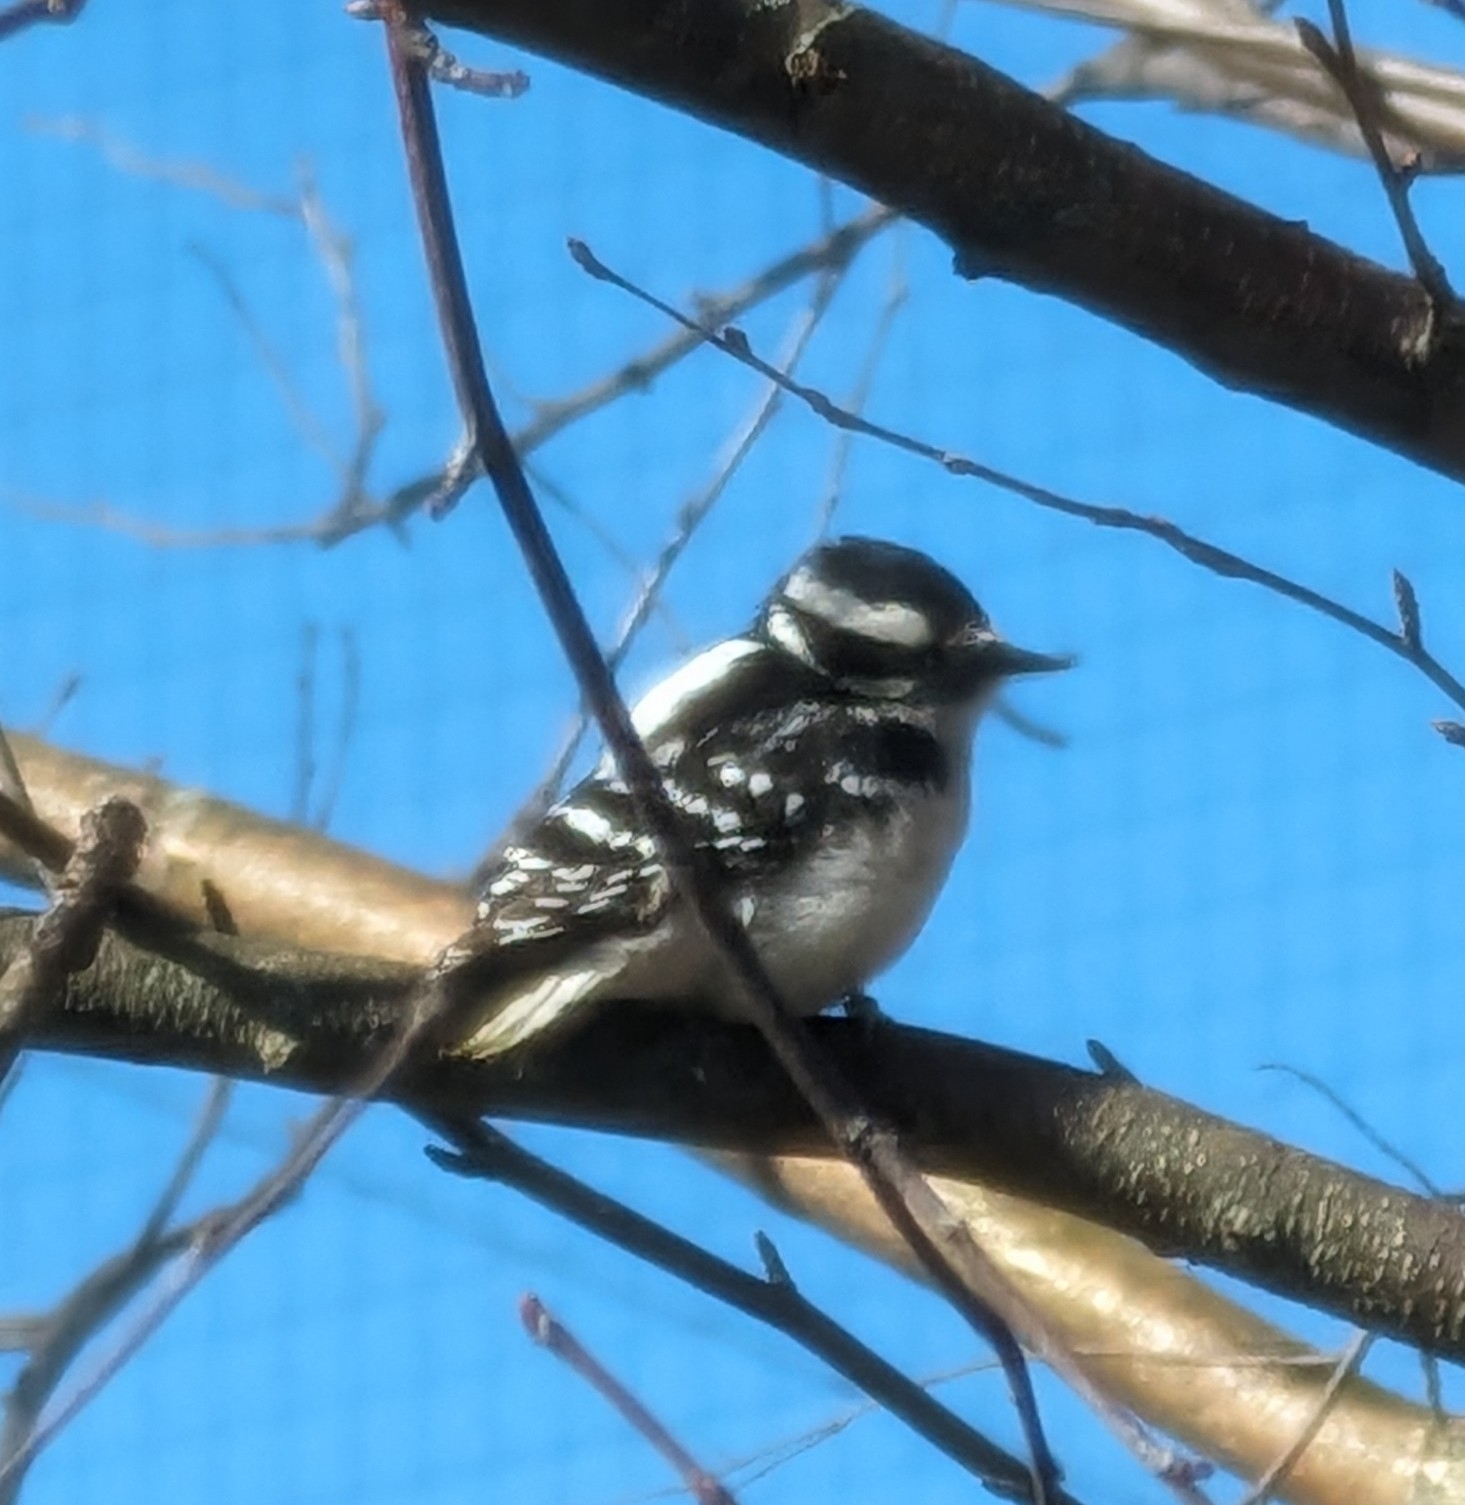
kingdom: Animalia
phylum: Chordata
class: Aves
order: Piciformes
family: Picidae
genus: Dryobates
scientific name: Dryobates pubescens
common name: Downy woodpecker
